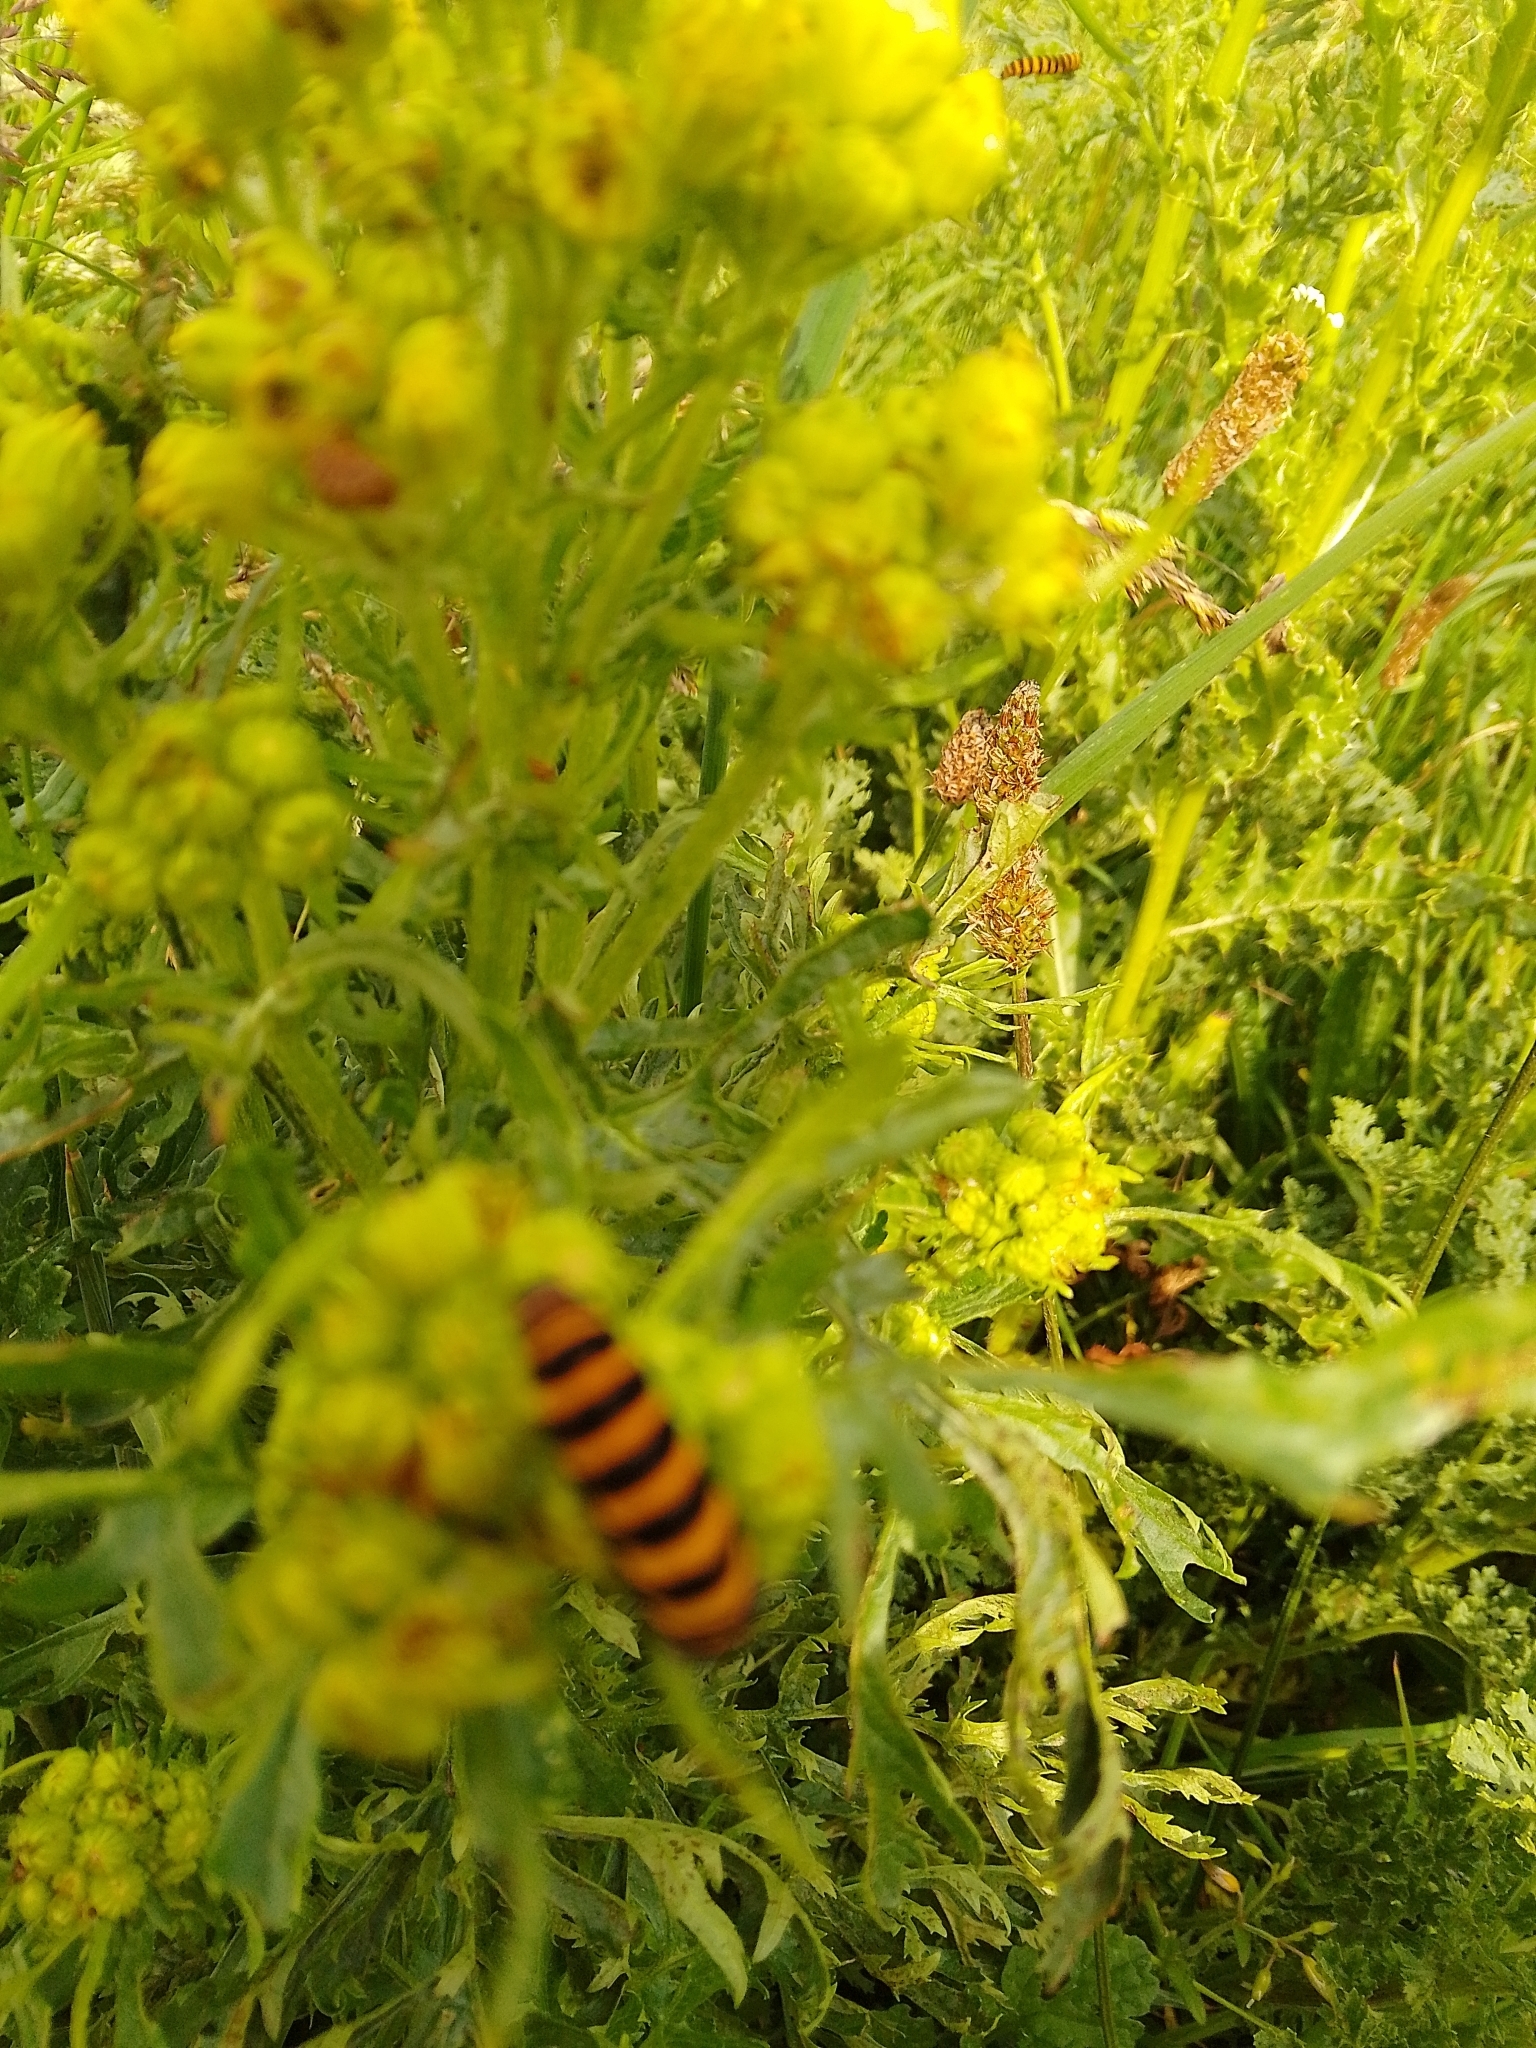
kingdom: Animalia
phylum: Arthropoda
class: Insecta
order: Lepidoptera
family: Erebidae
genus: Tyria
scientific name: Tyria jacobaeae
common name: Cinnabar
